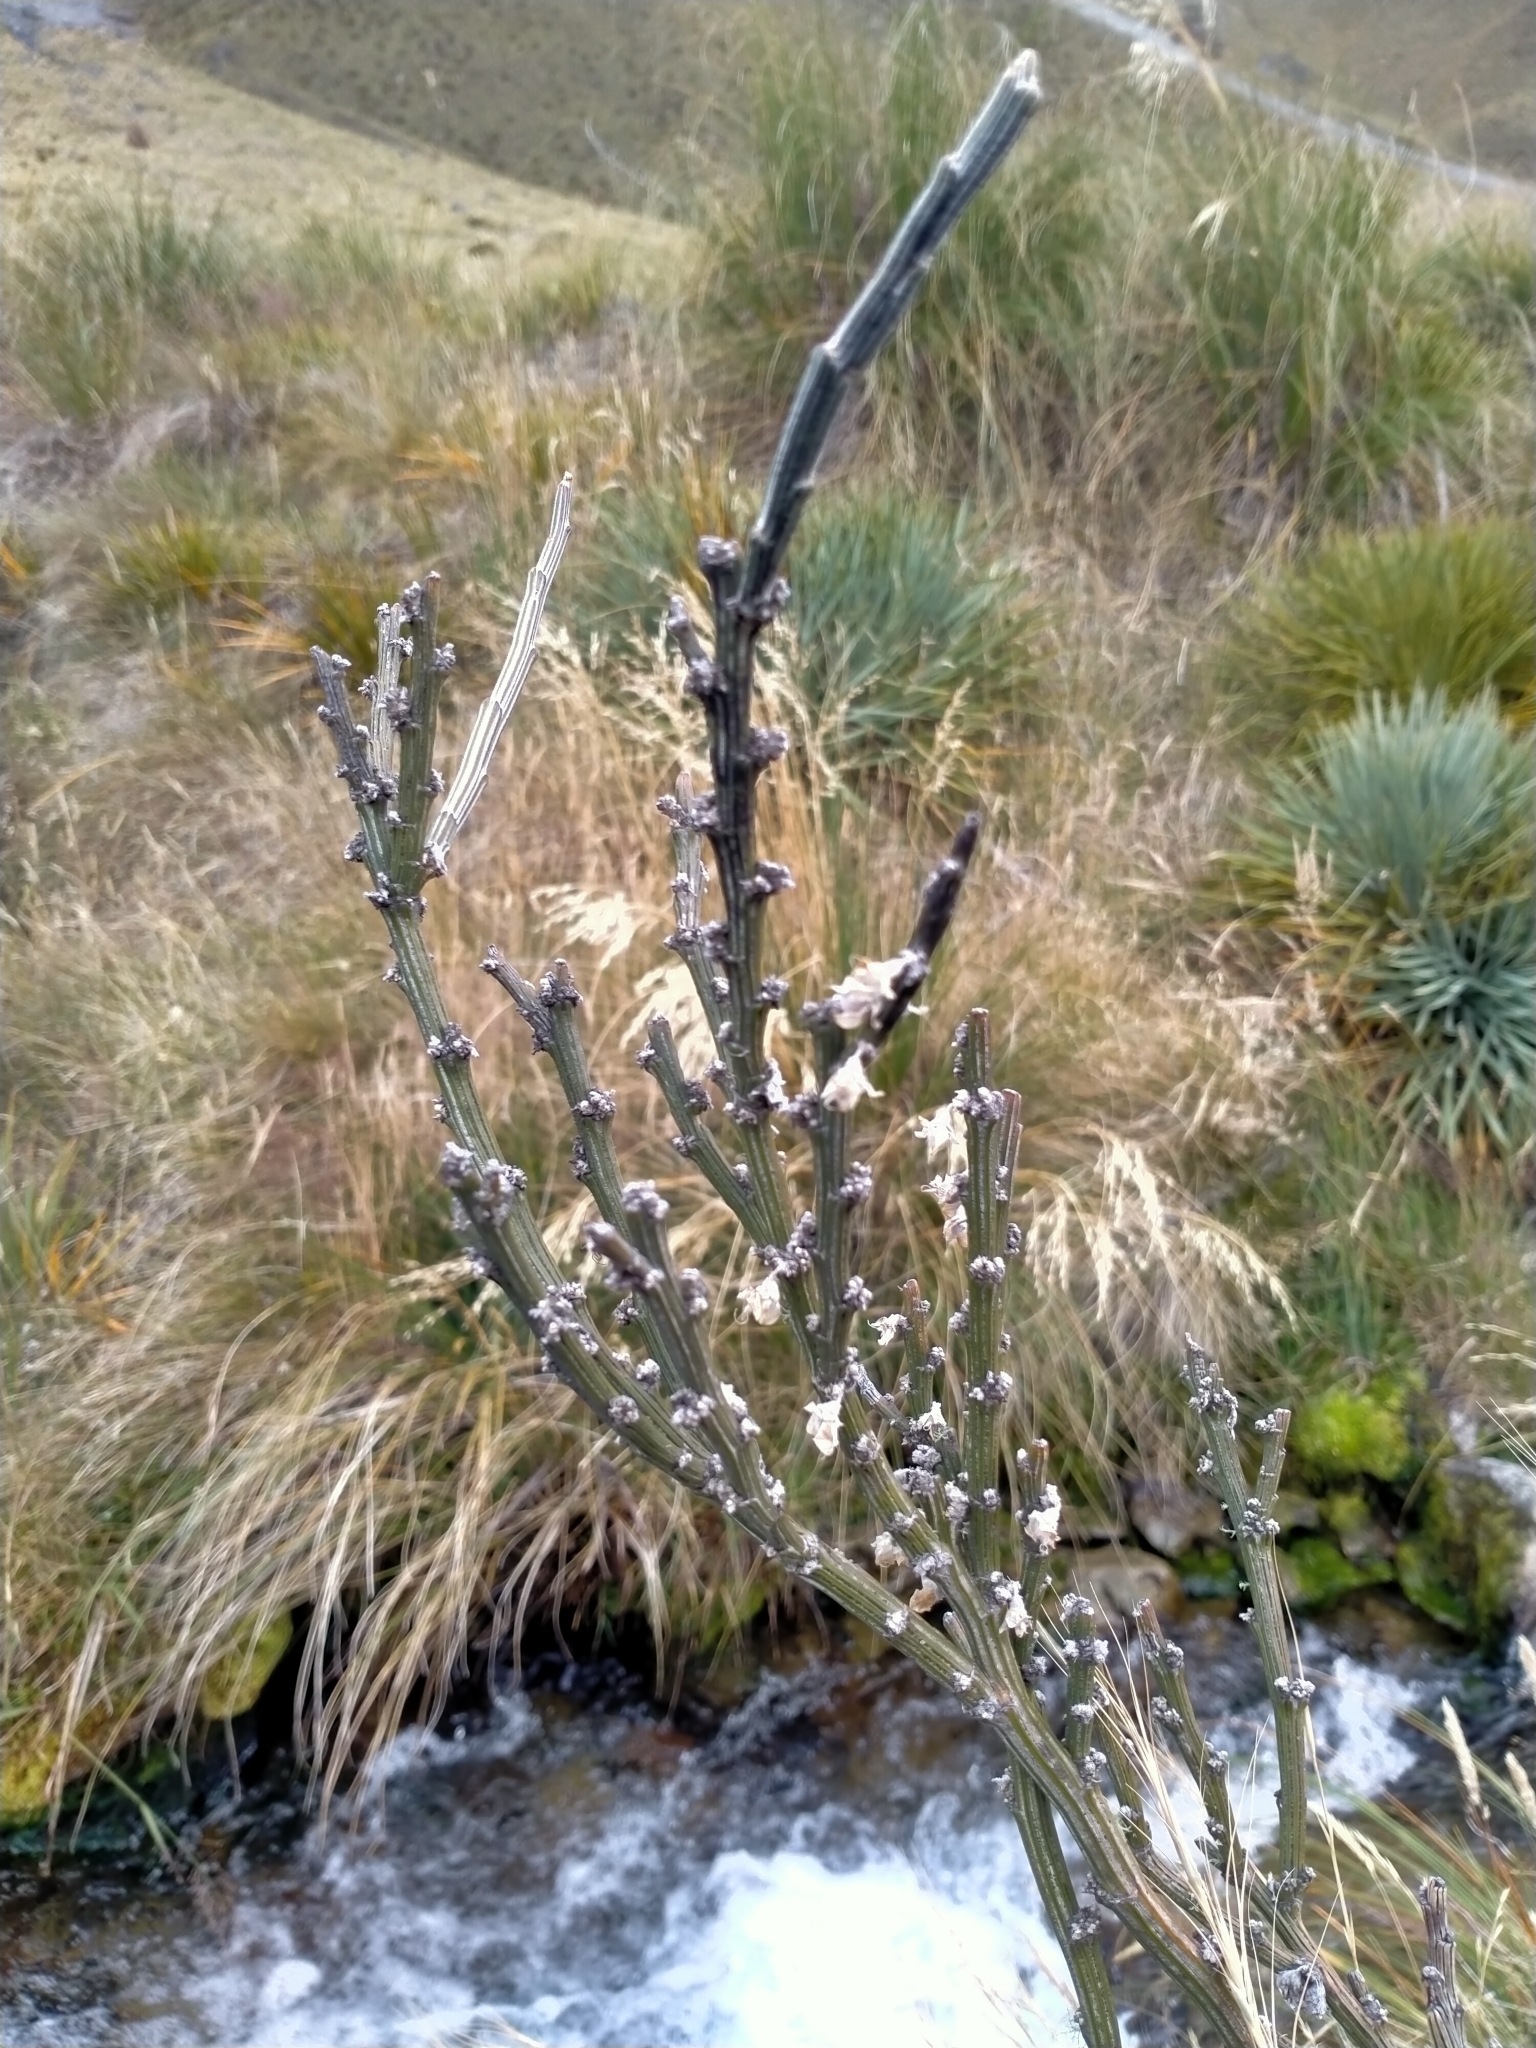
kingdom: Plantae
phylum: Tracheophyta
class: Magnoliopsida
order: Fabales
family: Fabaceae
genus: Carmichaelia
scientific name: Carmichaelia crassicaulis
